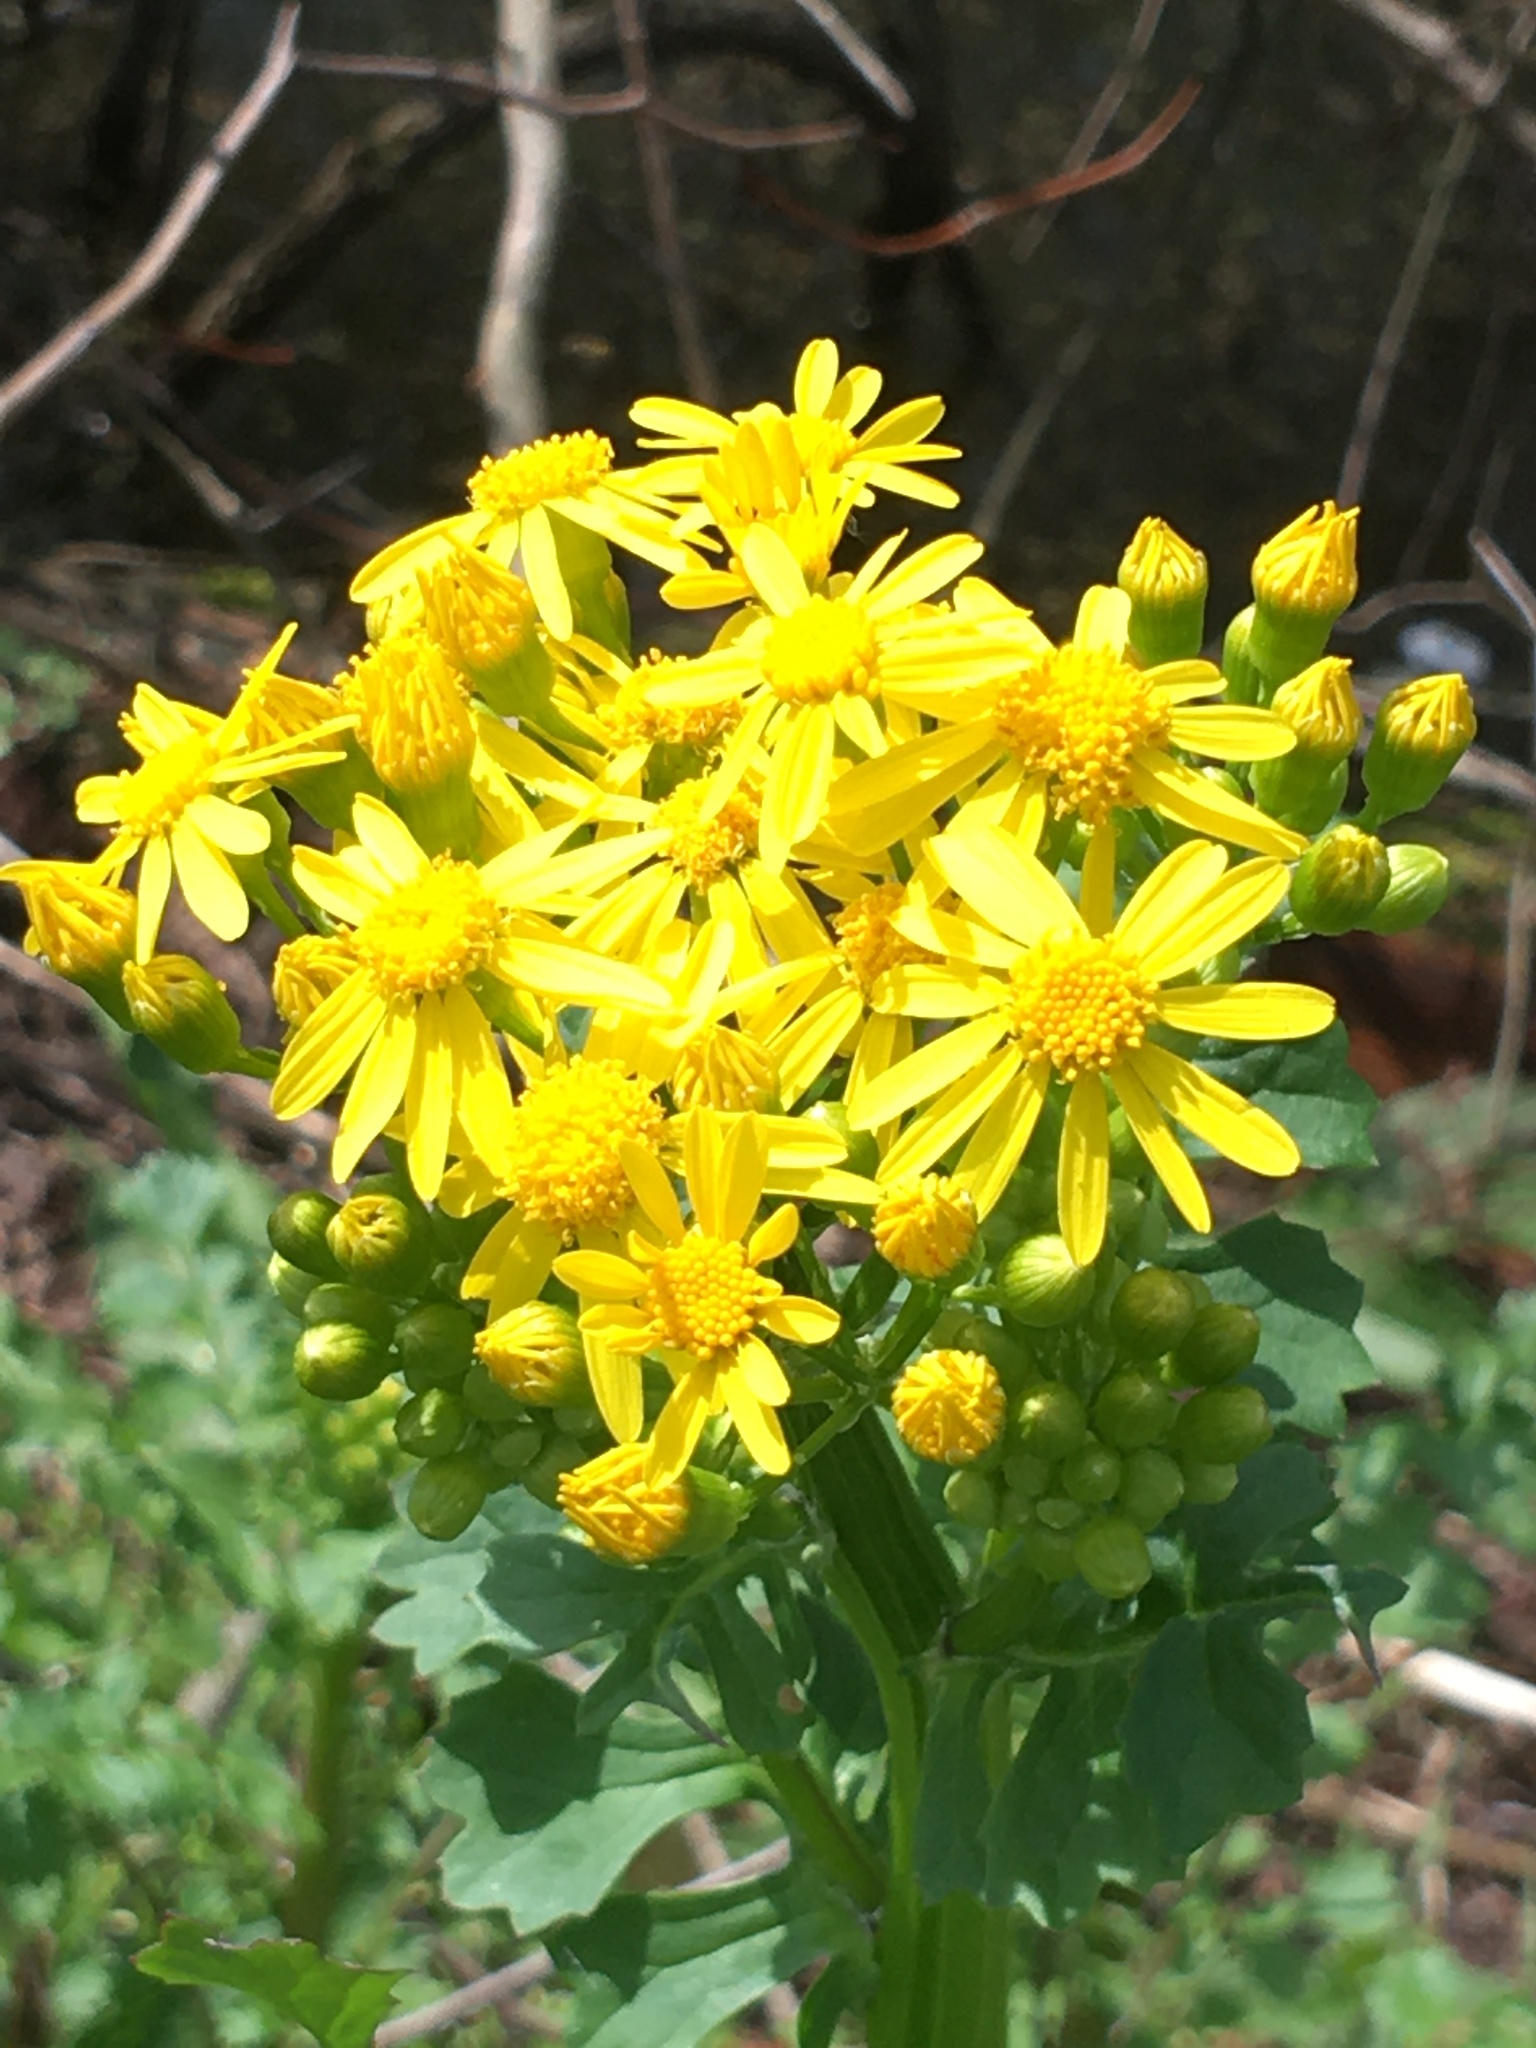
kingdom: Plantae
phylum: Tracheophyta
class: Magnoliopsida
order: Asterales
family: Asteraceae
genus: Packera
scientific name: Packera glabella
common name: Butterweed
